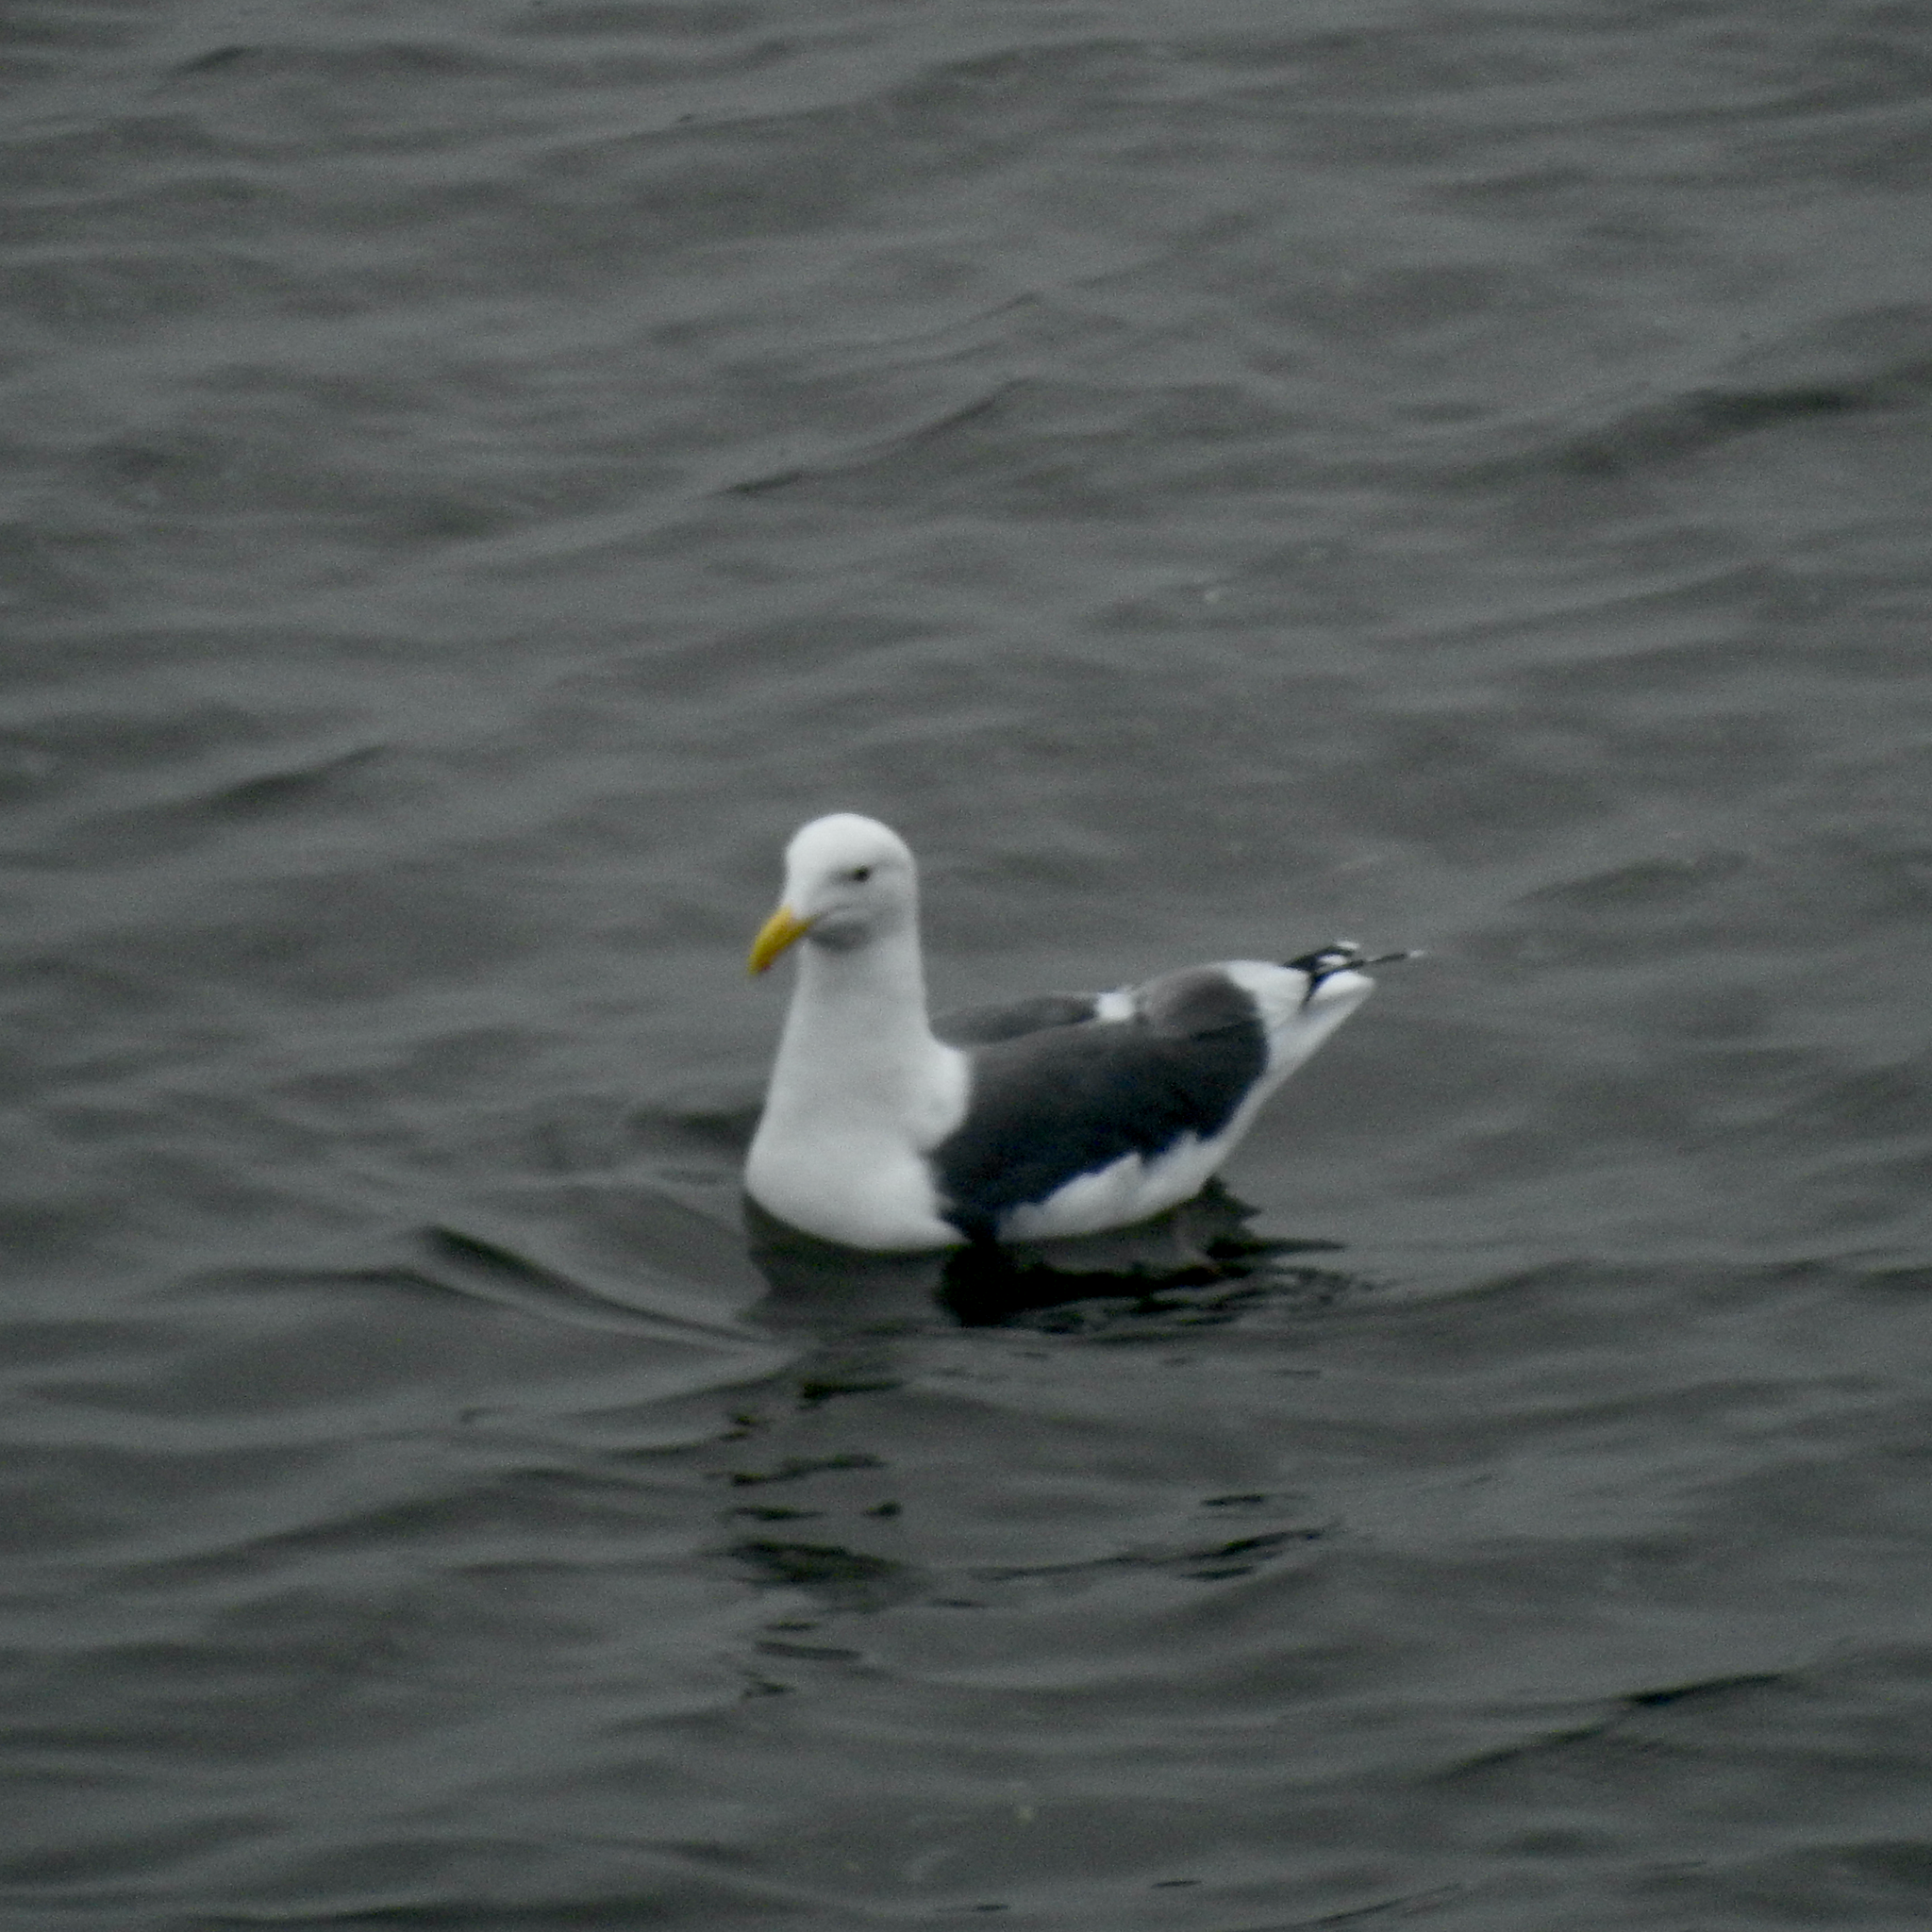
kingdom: Animalia
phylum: Chordata
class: Aves
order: Charadriiformes
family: Laridae
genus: Larus
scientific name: Larus occidentalis
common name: Western gull
